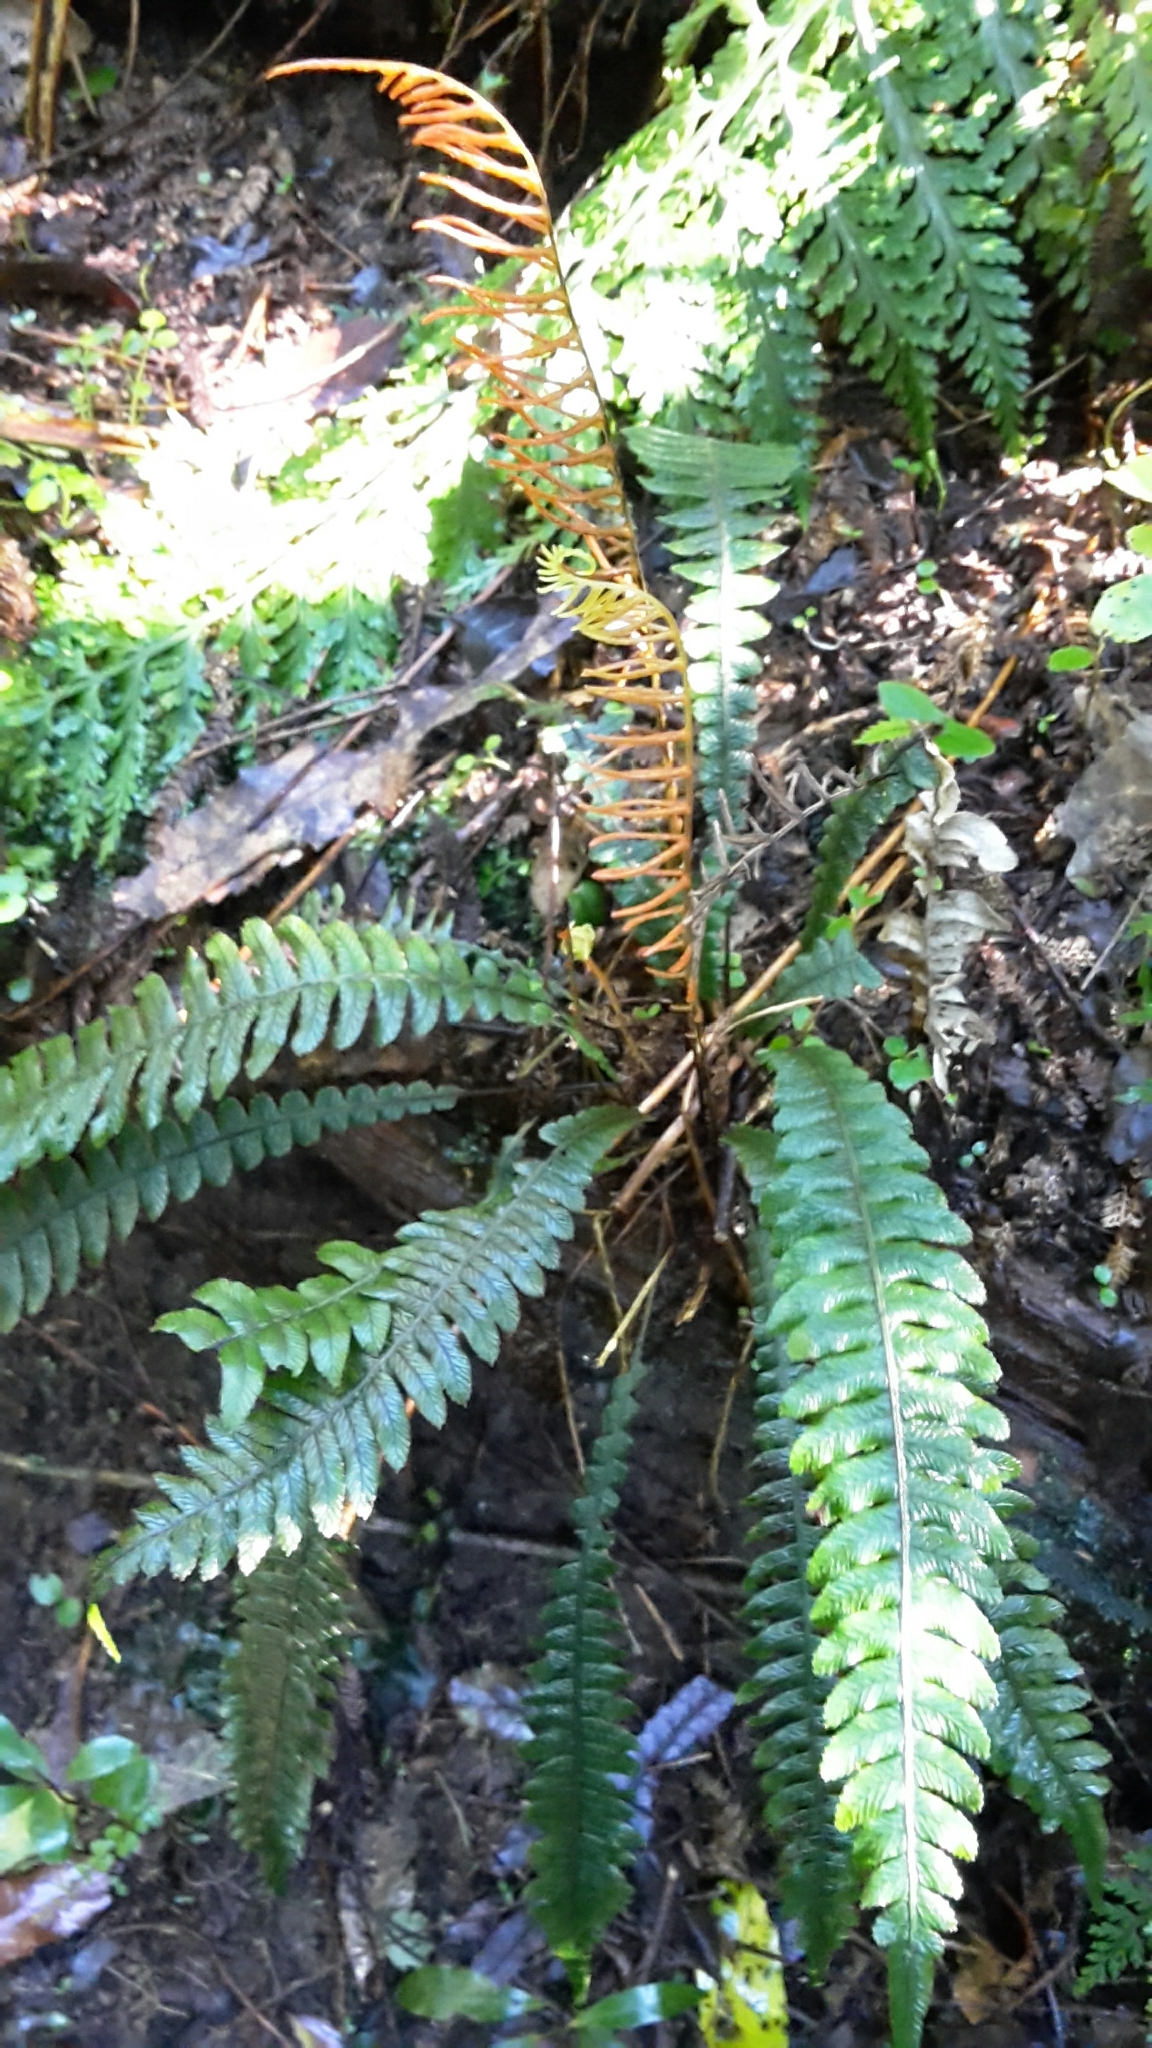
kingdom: Plantae
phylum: Tracheophyta
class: Polypodiopsida
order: Polypodiales
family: Blechnaceae
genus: Austroblechnum
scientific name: Austroblechnum lanceolatum
